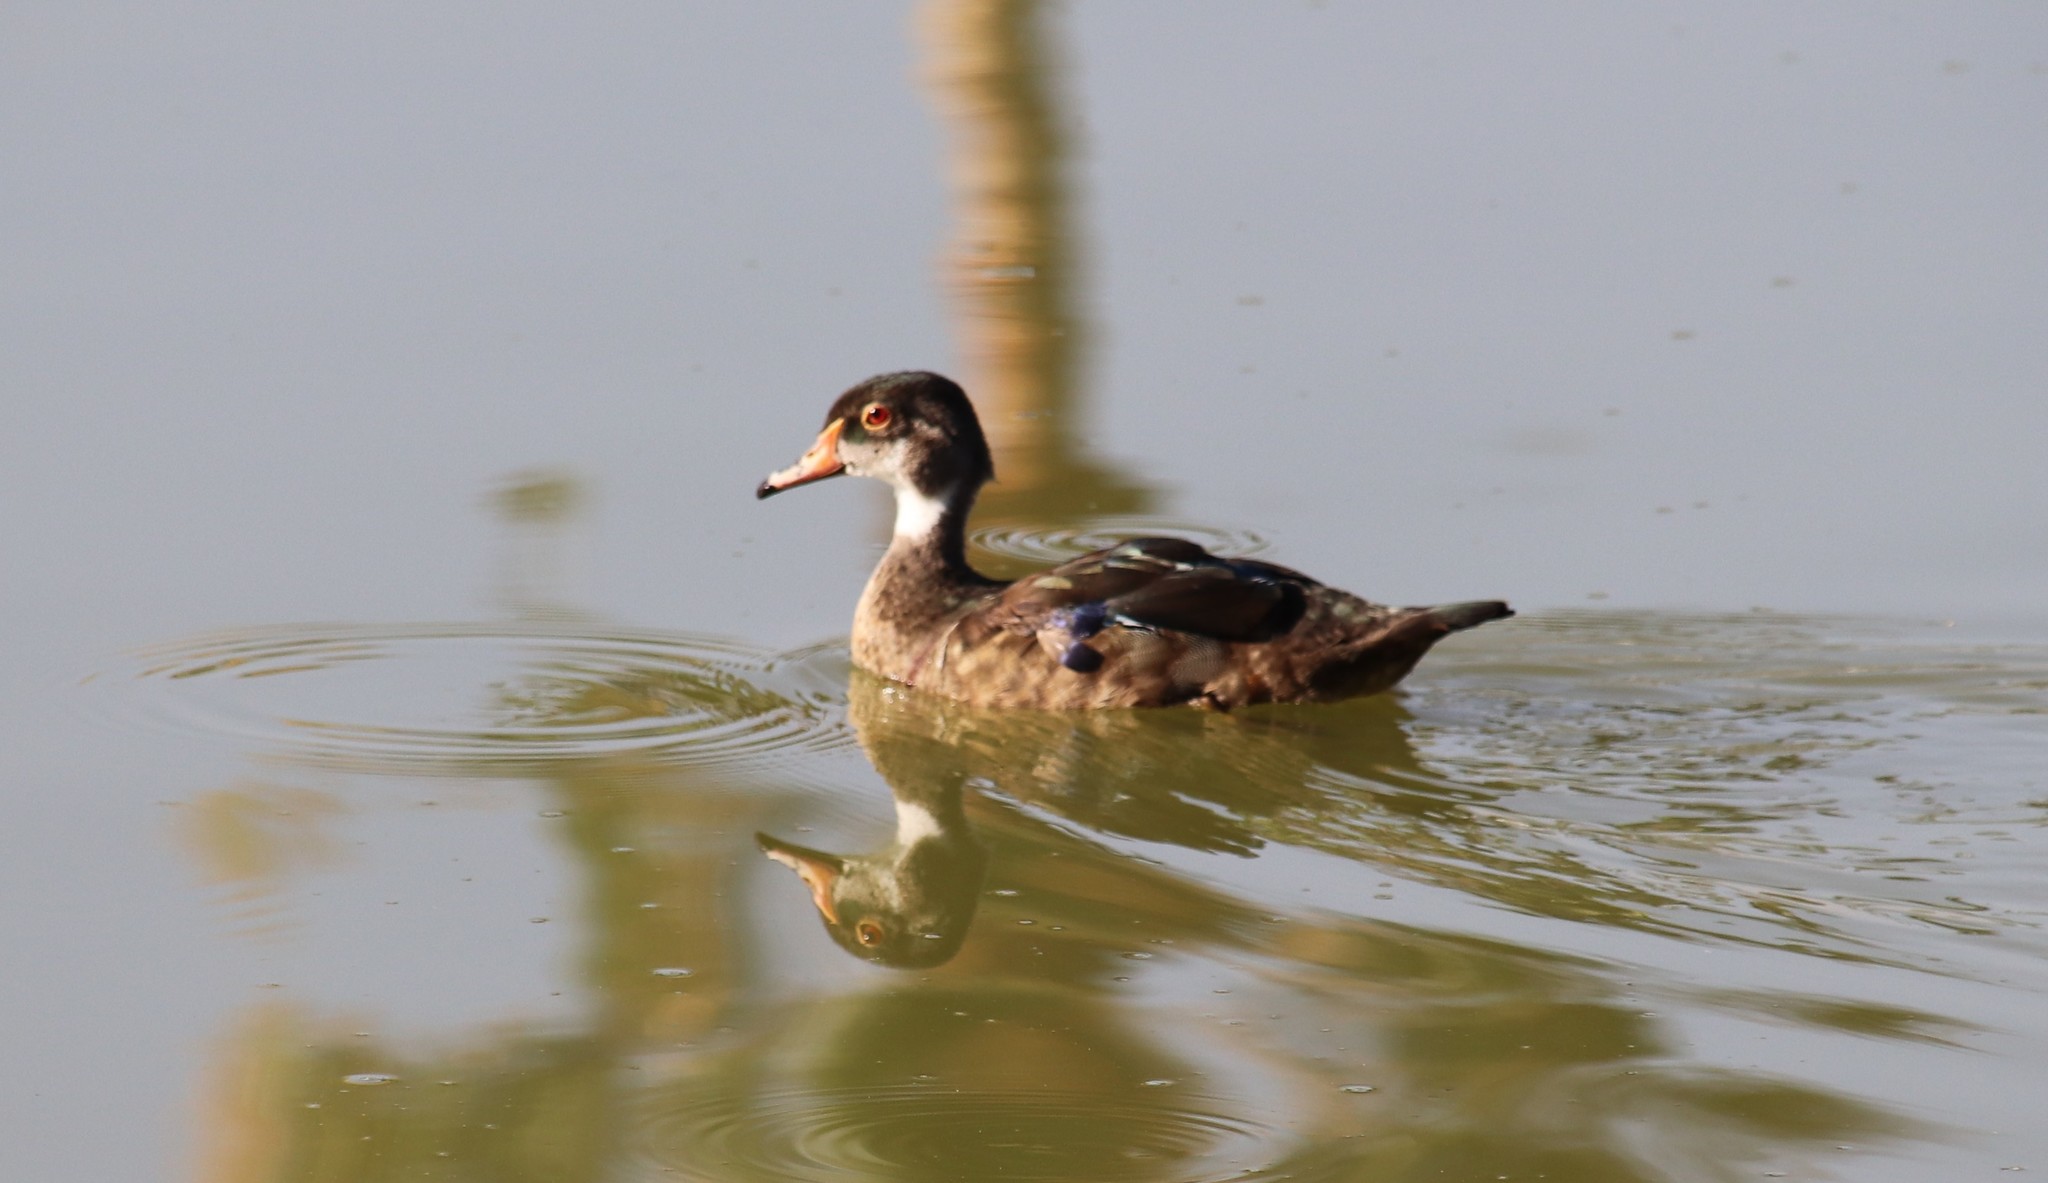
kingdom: Animalia
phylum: Chordata
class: Aves
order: Anseriformes
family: Anatidae
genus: Aix
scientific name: Aix sponsa
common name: Wood duck
